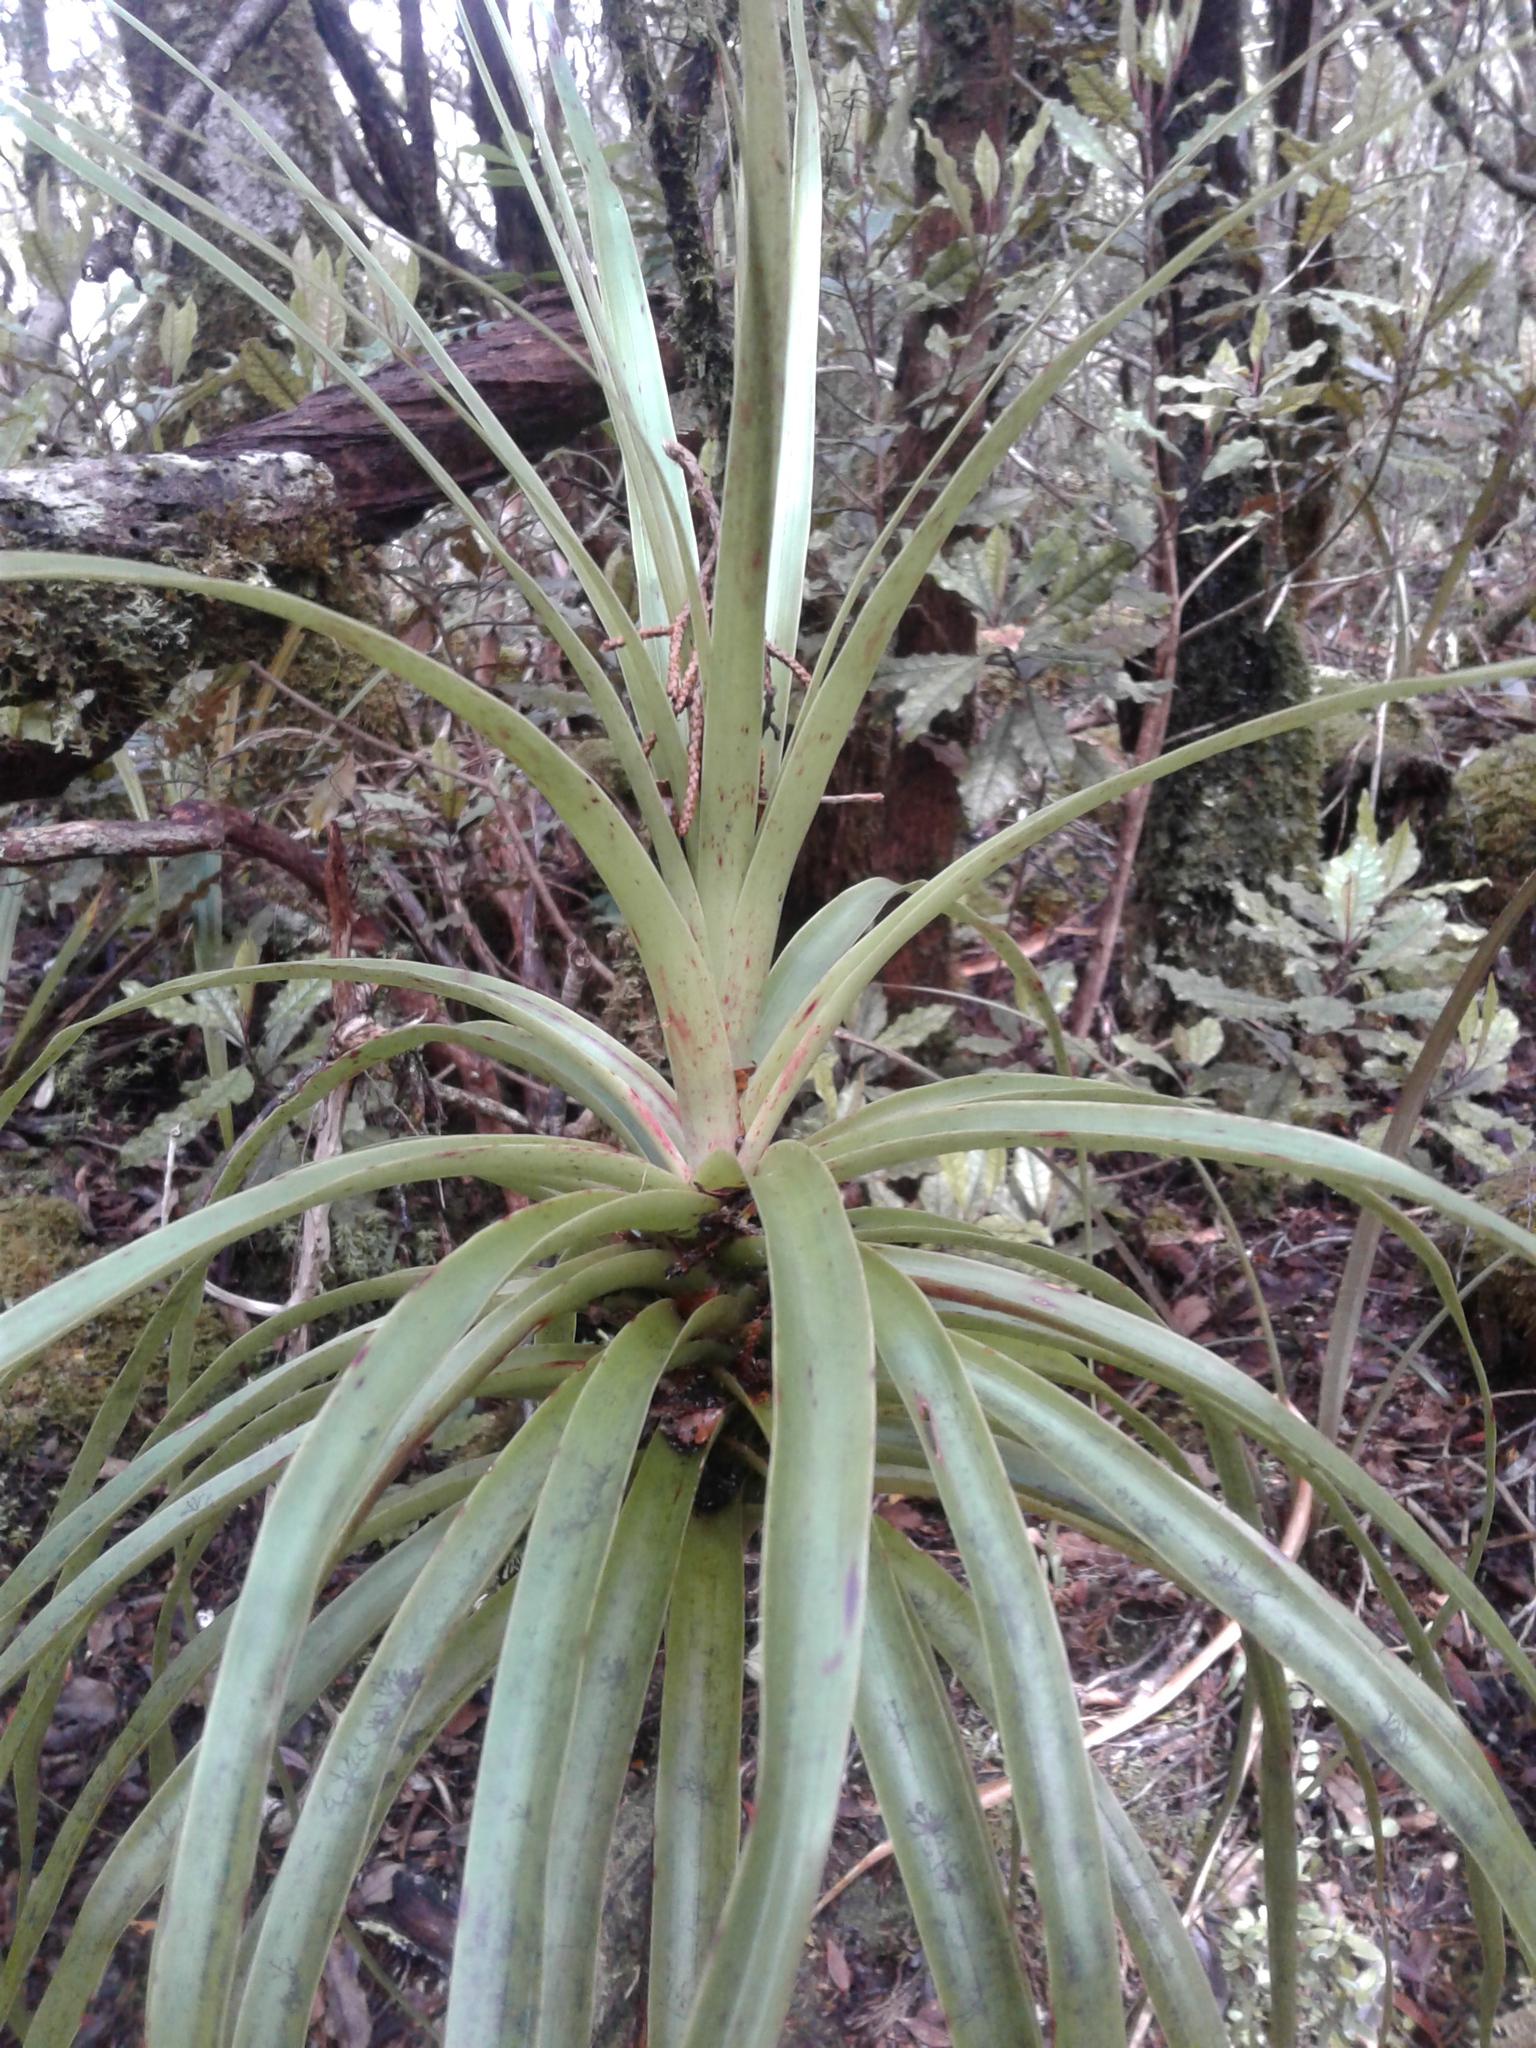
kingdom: Plantae
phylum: Tracheophyta
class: Magnoliopsida
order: Ericales
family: Ericaceae
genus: Dracophyllum
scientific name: Dracophyllum elegantissimum
